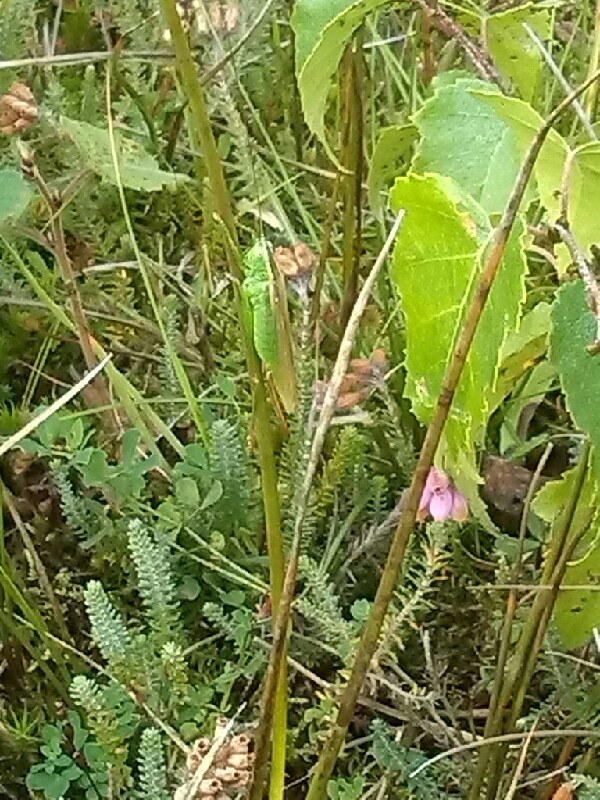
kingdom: Animalia
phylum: Arthropoda
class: Insecta
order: Orthoptera
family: Tettigoniidae
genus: Conocephalus
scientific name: Conocephalus fuscus
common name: Long-winged conehead
